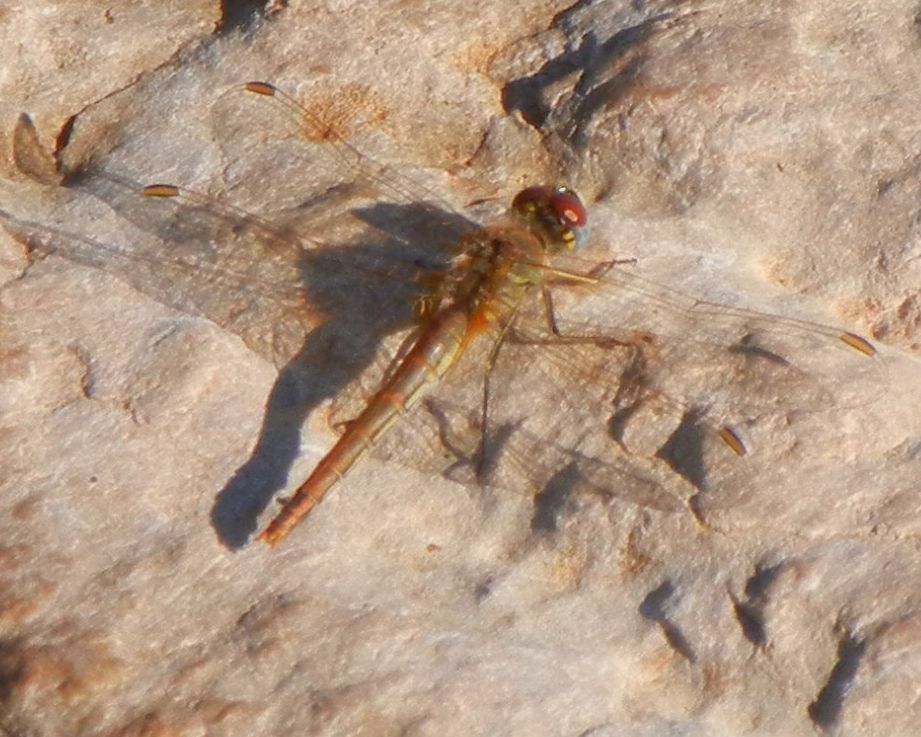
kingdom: Animalia
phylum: Arthropoda
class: Insecta
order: Odonata
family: Libellulidae
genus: Sympetrum
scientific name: Sympetrum fonscolombii
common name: Red-veined darter
